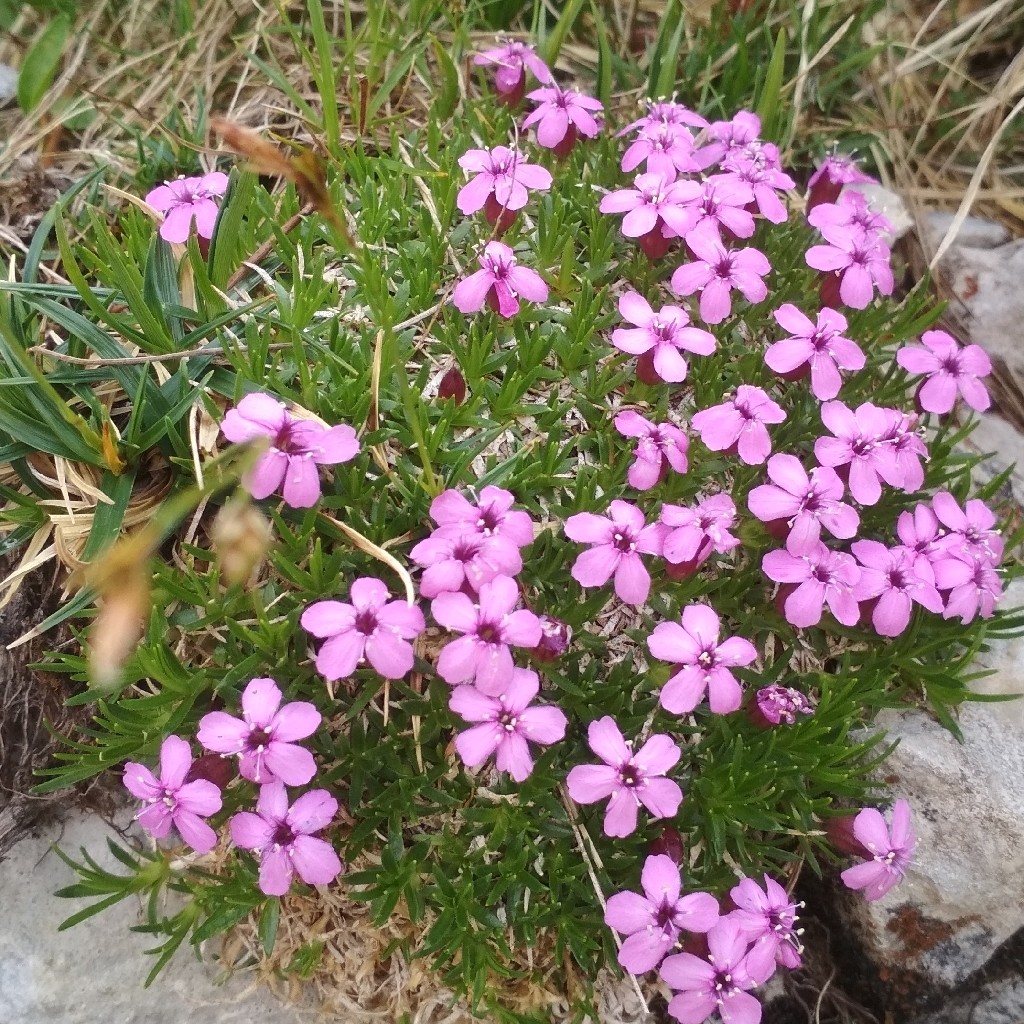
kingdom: Plantae
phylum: Tracheophyta
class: Magnoliopsida
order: Caryophyllales
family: Caryophyllaceae
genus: Silene
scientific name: Silene acaulis
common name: Moss campion
